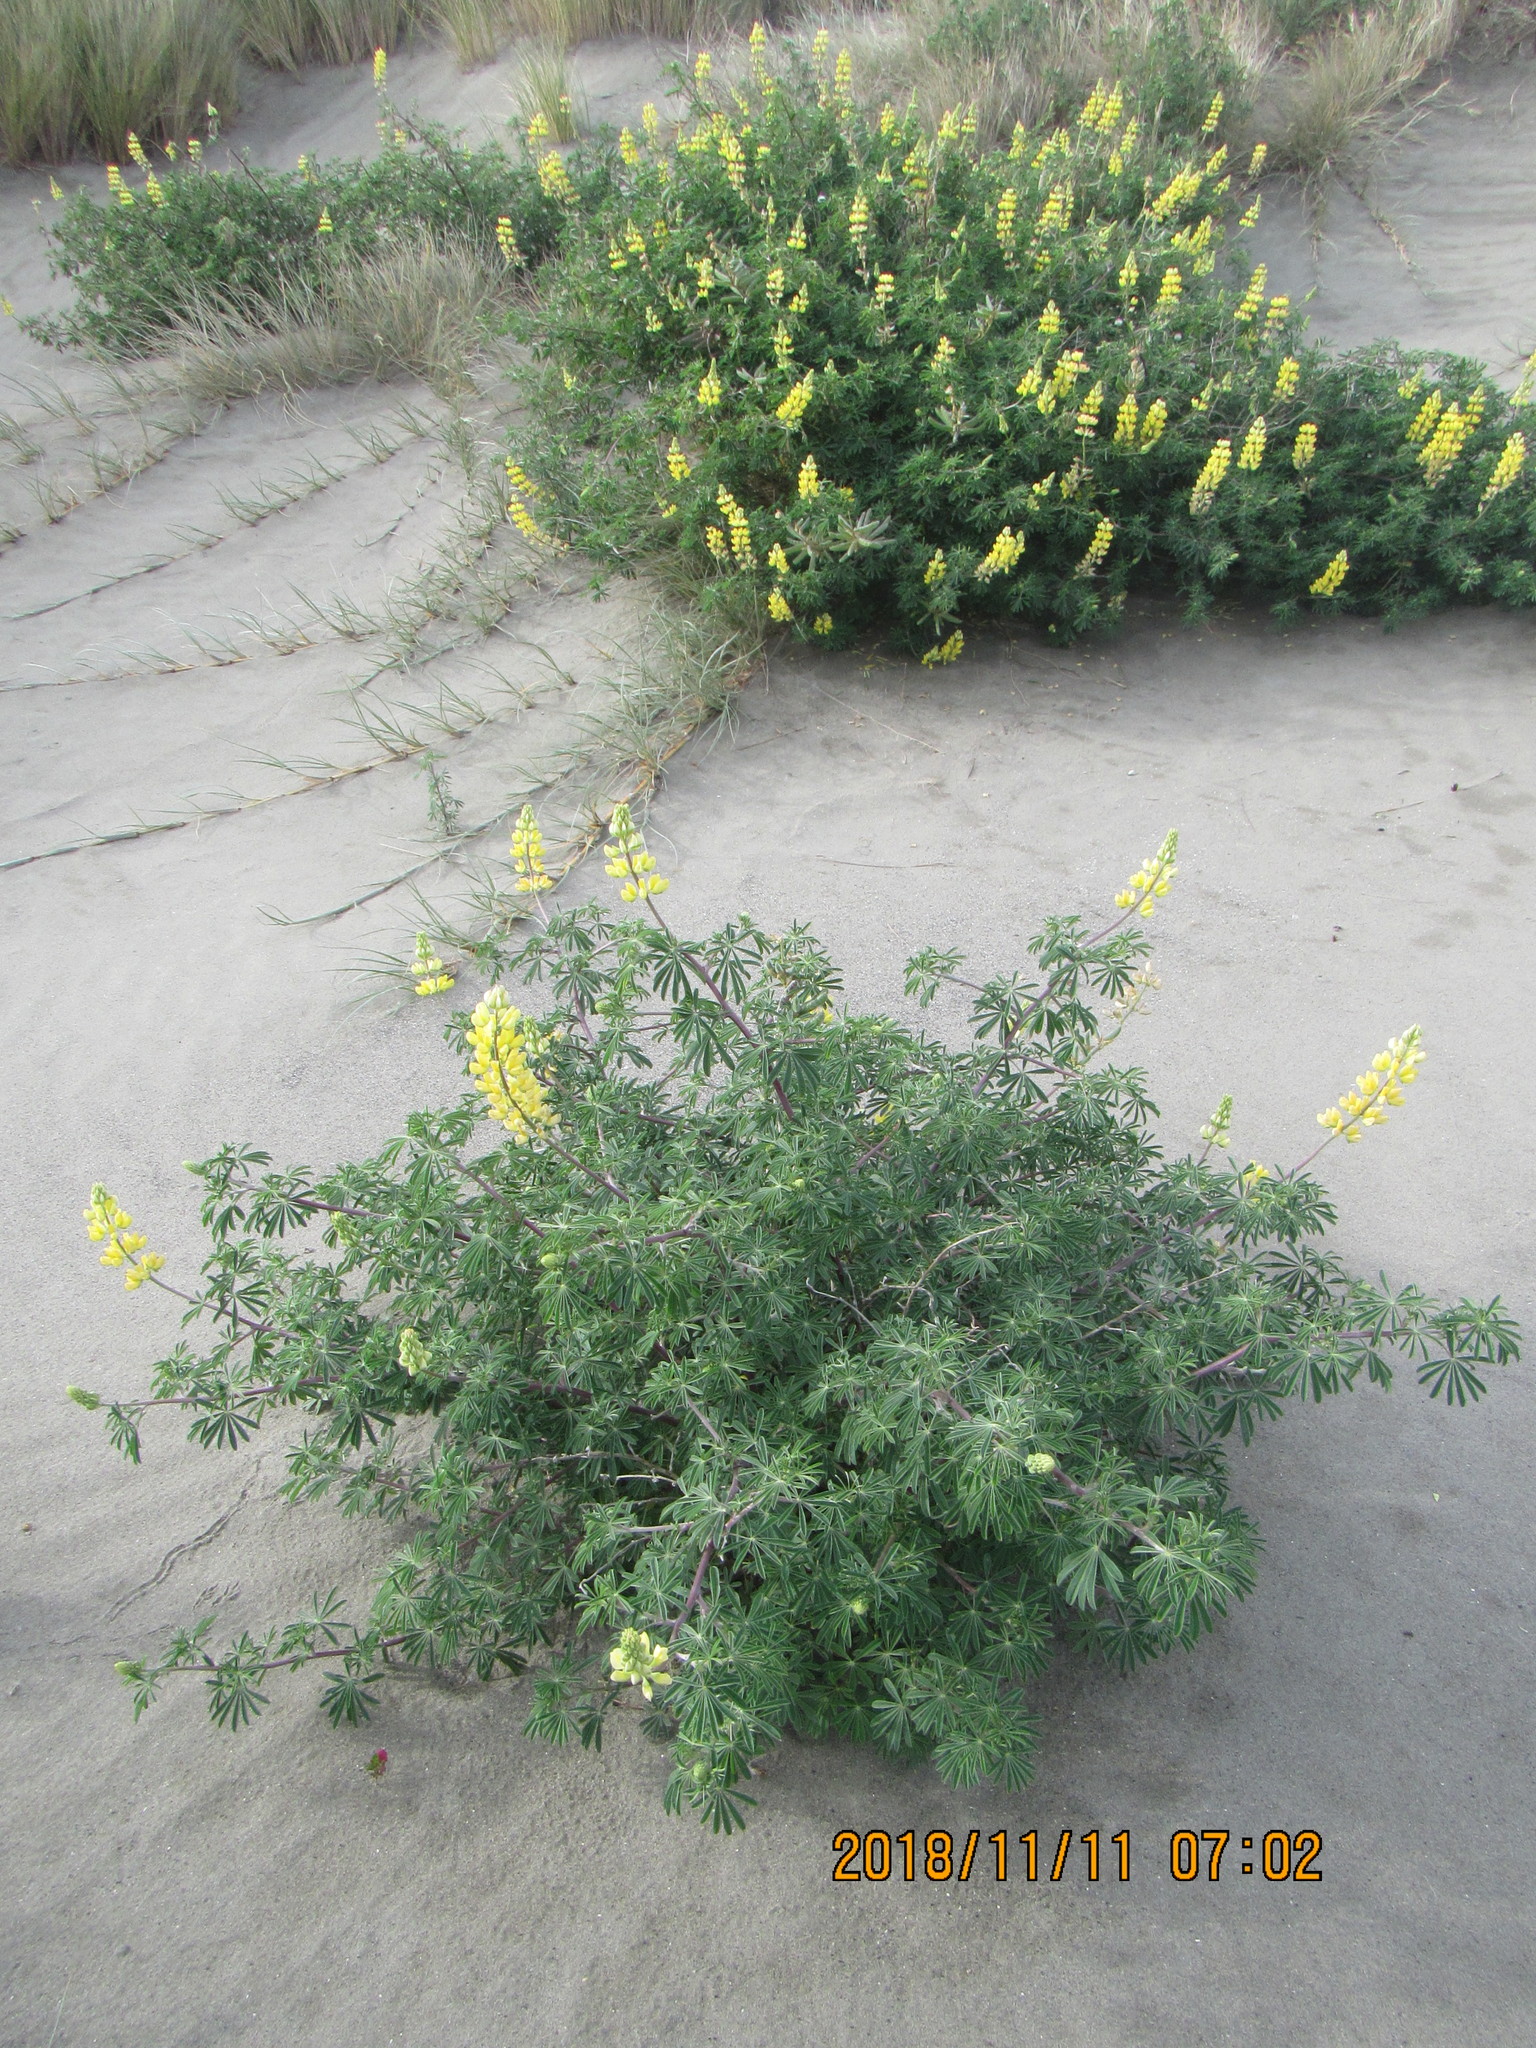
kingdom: Plantae
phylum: Tracheophyta
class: Magnoliopsida
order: Fabales
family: Fabaceae
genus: Lupinus
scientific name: Lupinus arboreus
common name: Yellow bush lupine
